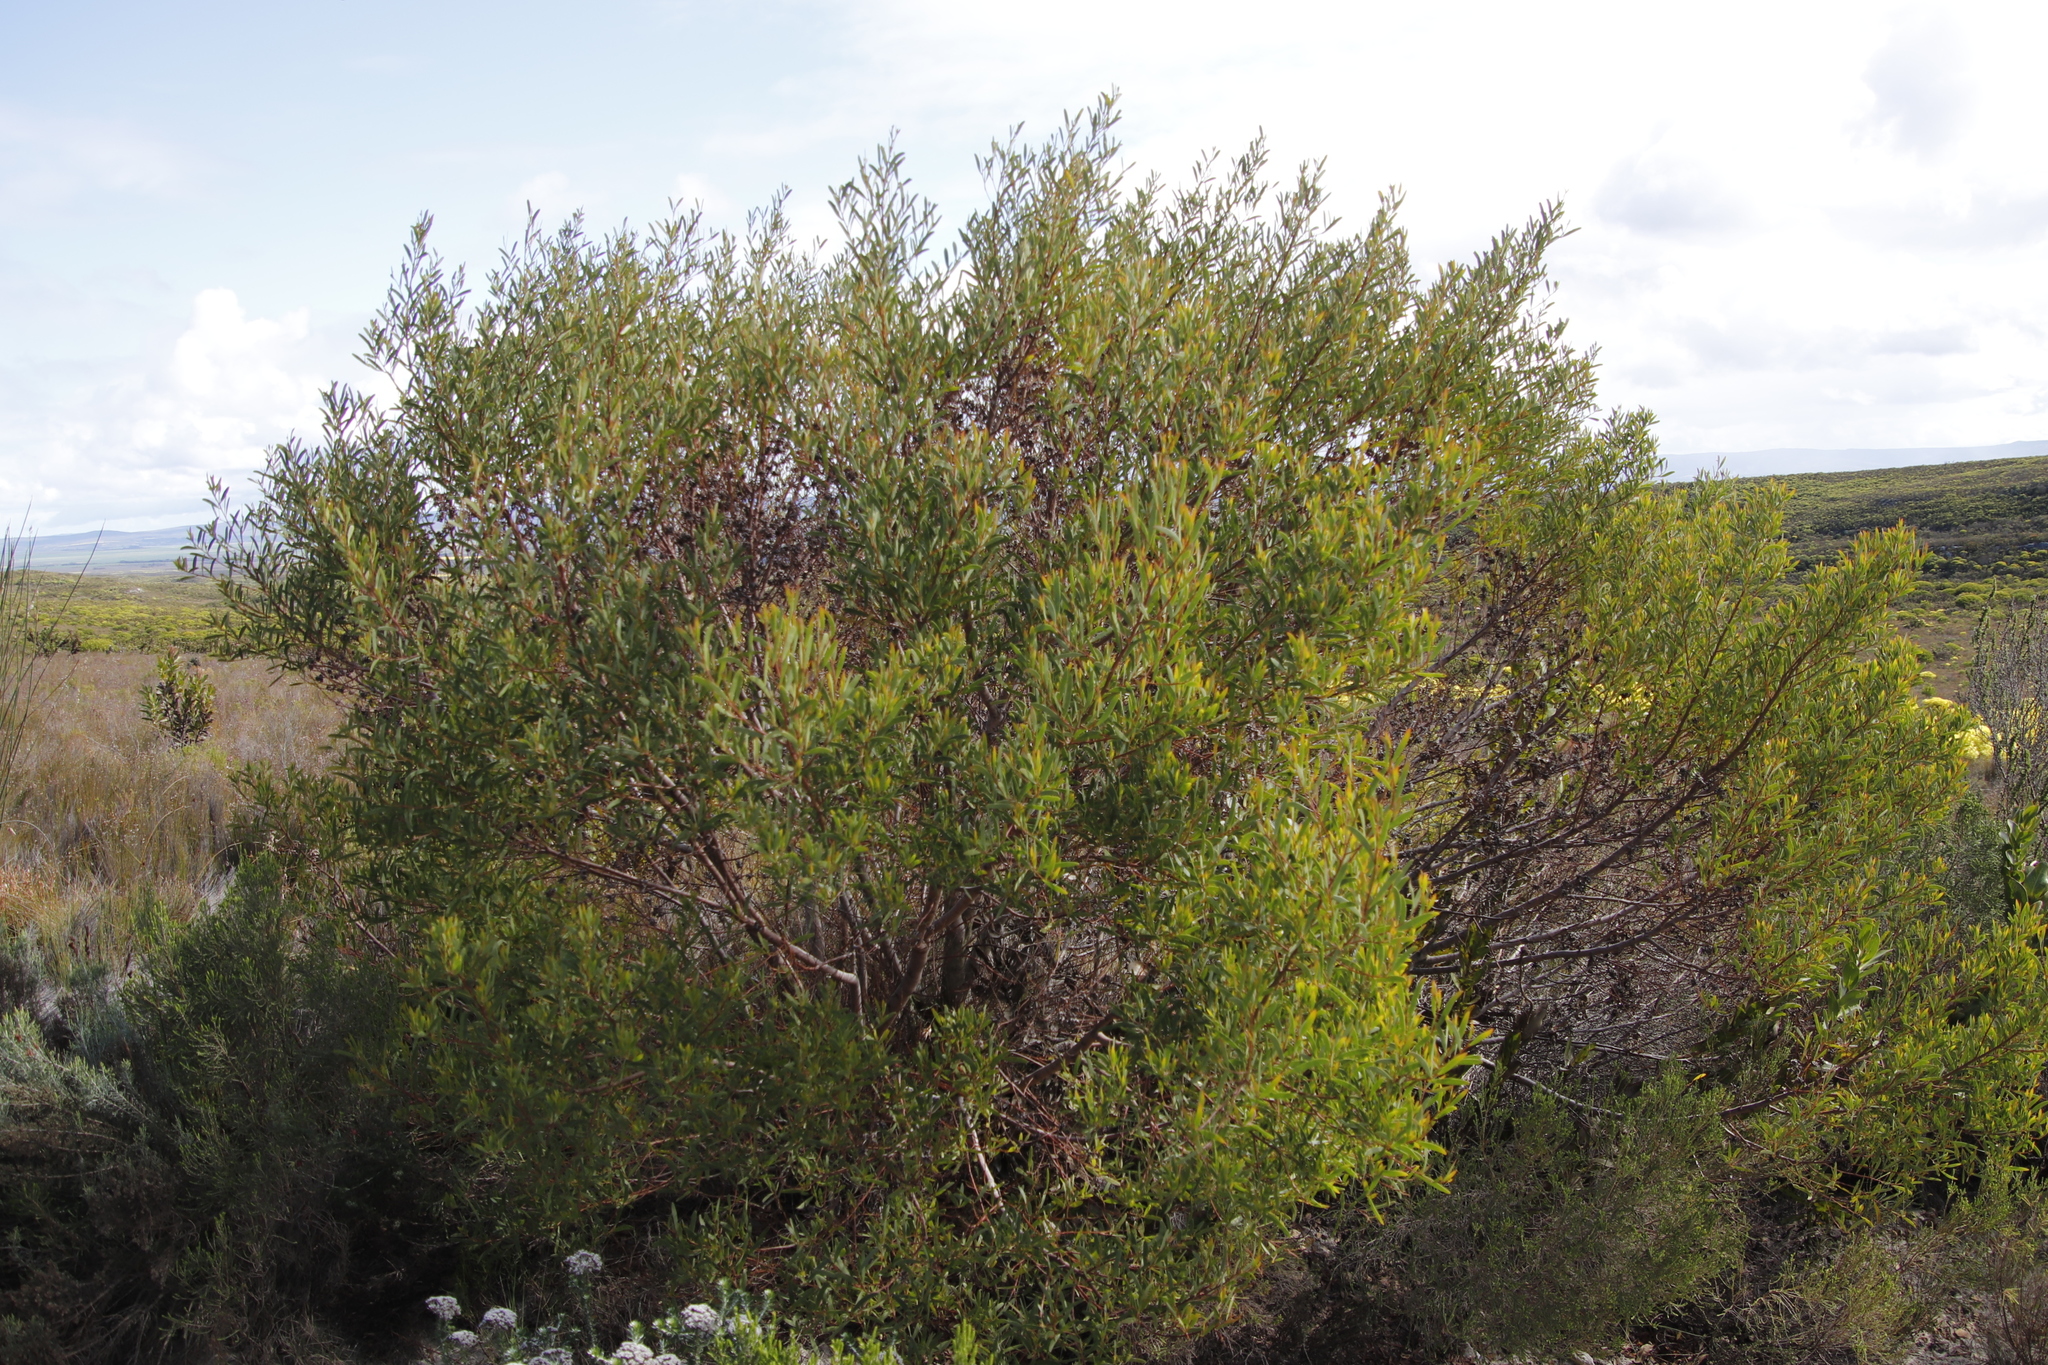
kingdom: Plantae
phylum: Tracheophyta
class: Magnoliopsida
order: Fabales
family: Fabaceae
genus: Acacia
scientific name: Acacia cyclops
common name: Coastal wattle
